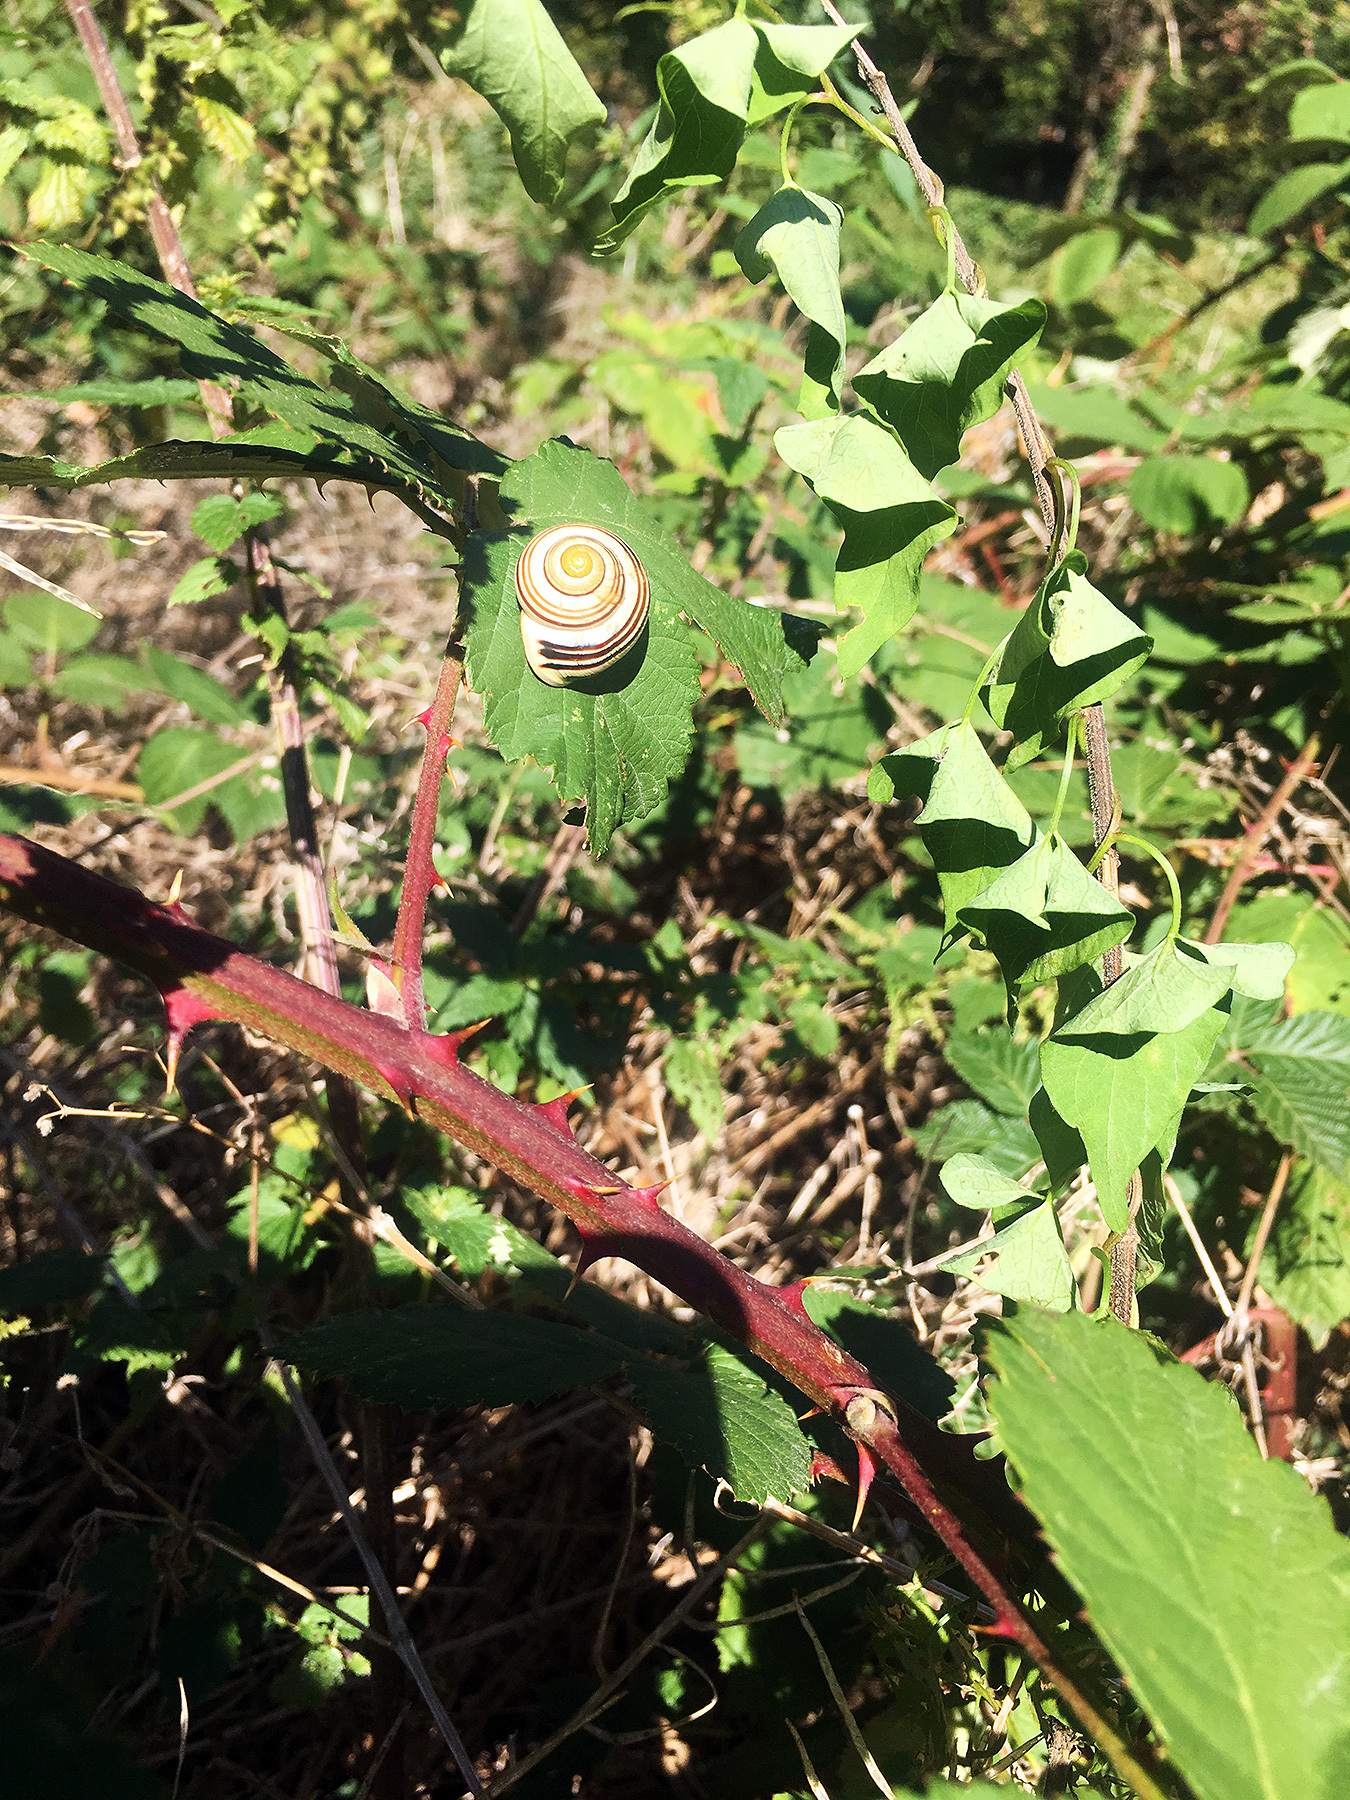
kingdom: Animalia
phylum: Mollusca
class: Gastropoda
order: Stylommatophora
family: Helicidae
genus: Cepaea
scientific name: Cepaea hortensis
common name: White-lip gardensnail
